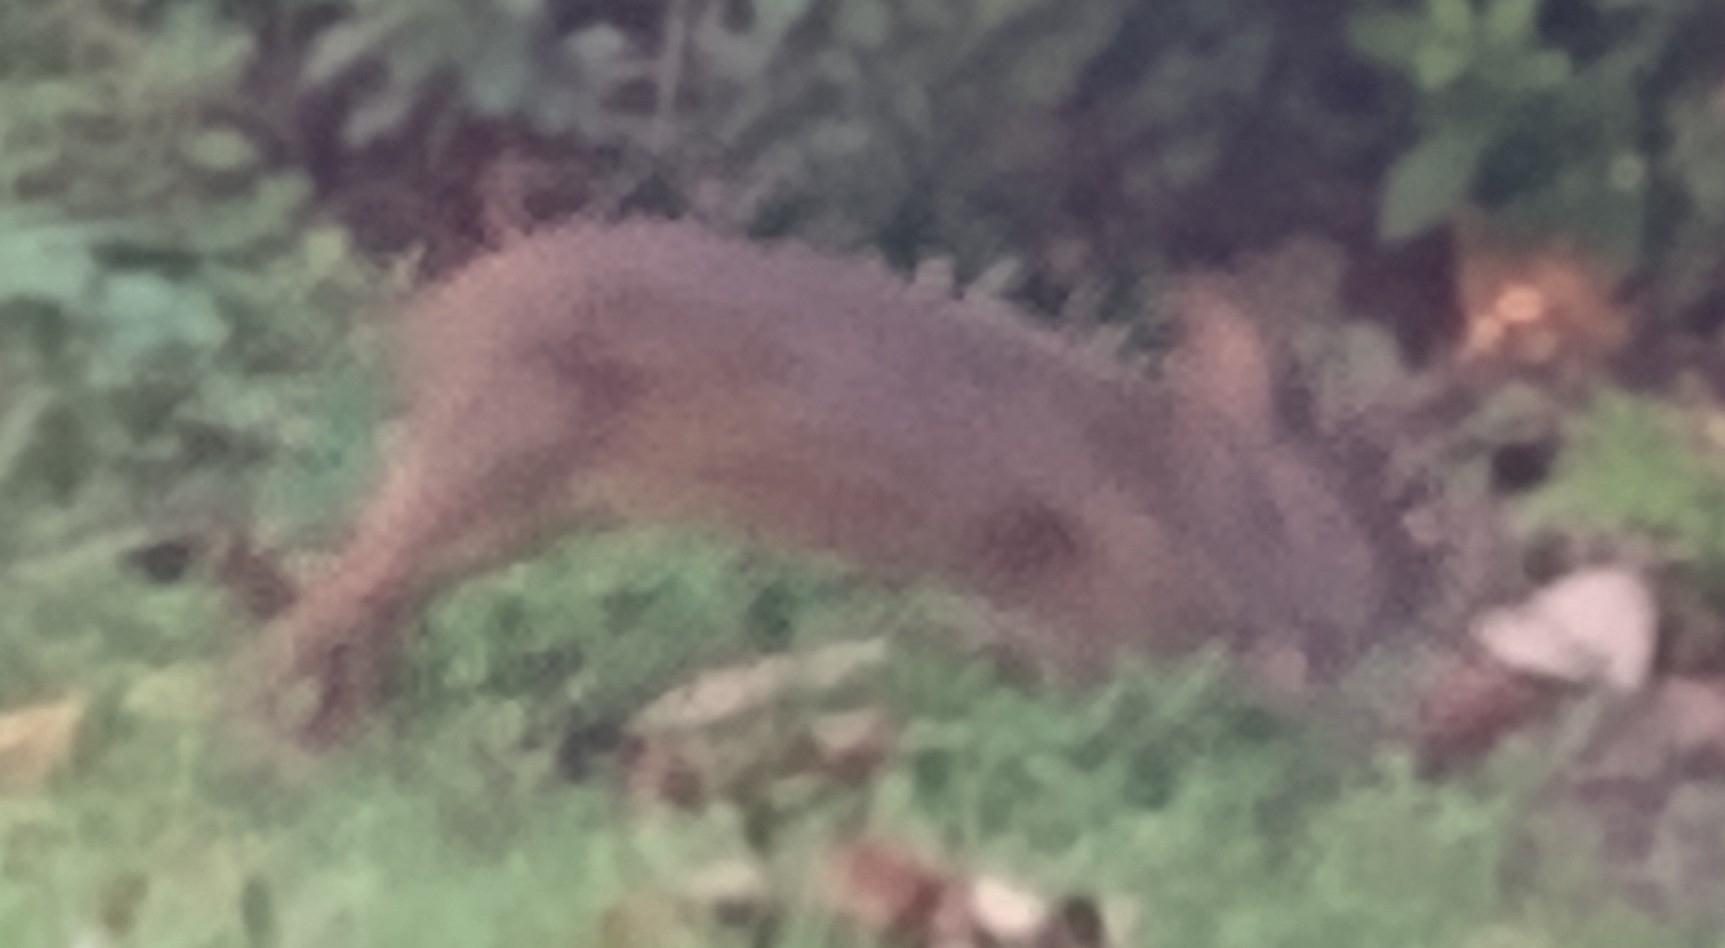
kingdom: Animalia
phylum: Chordata
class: Mammalia
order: Lagomorpha
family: Leporidae
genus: Sylvilagus
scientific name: Sylvilagus palustris
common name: Marsh rabbit
